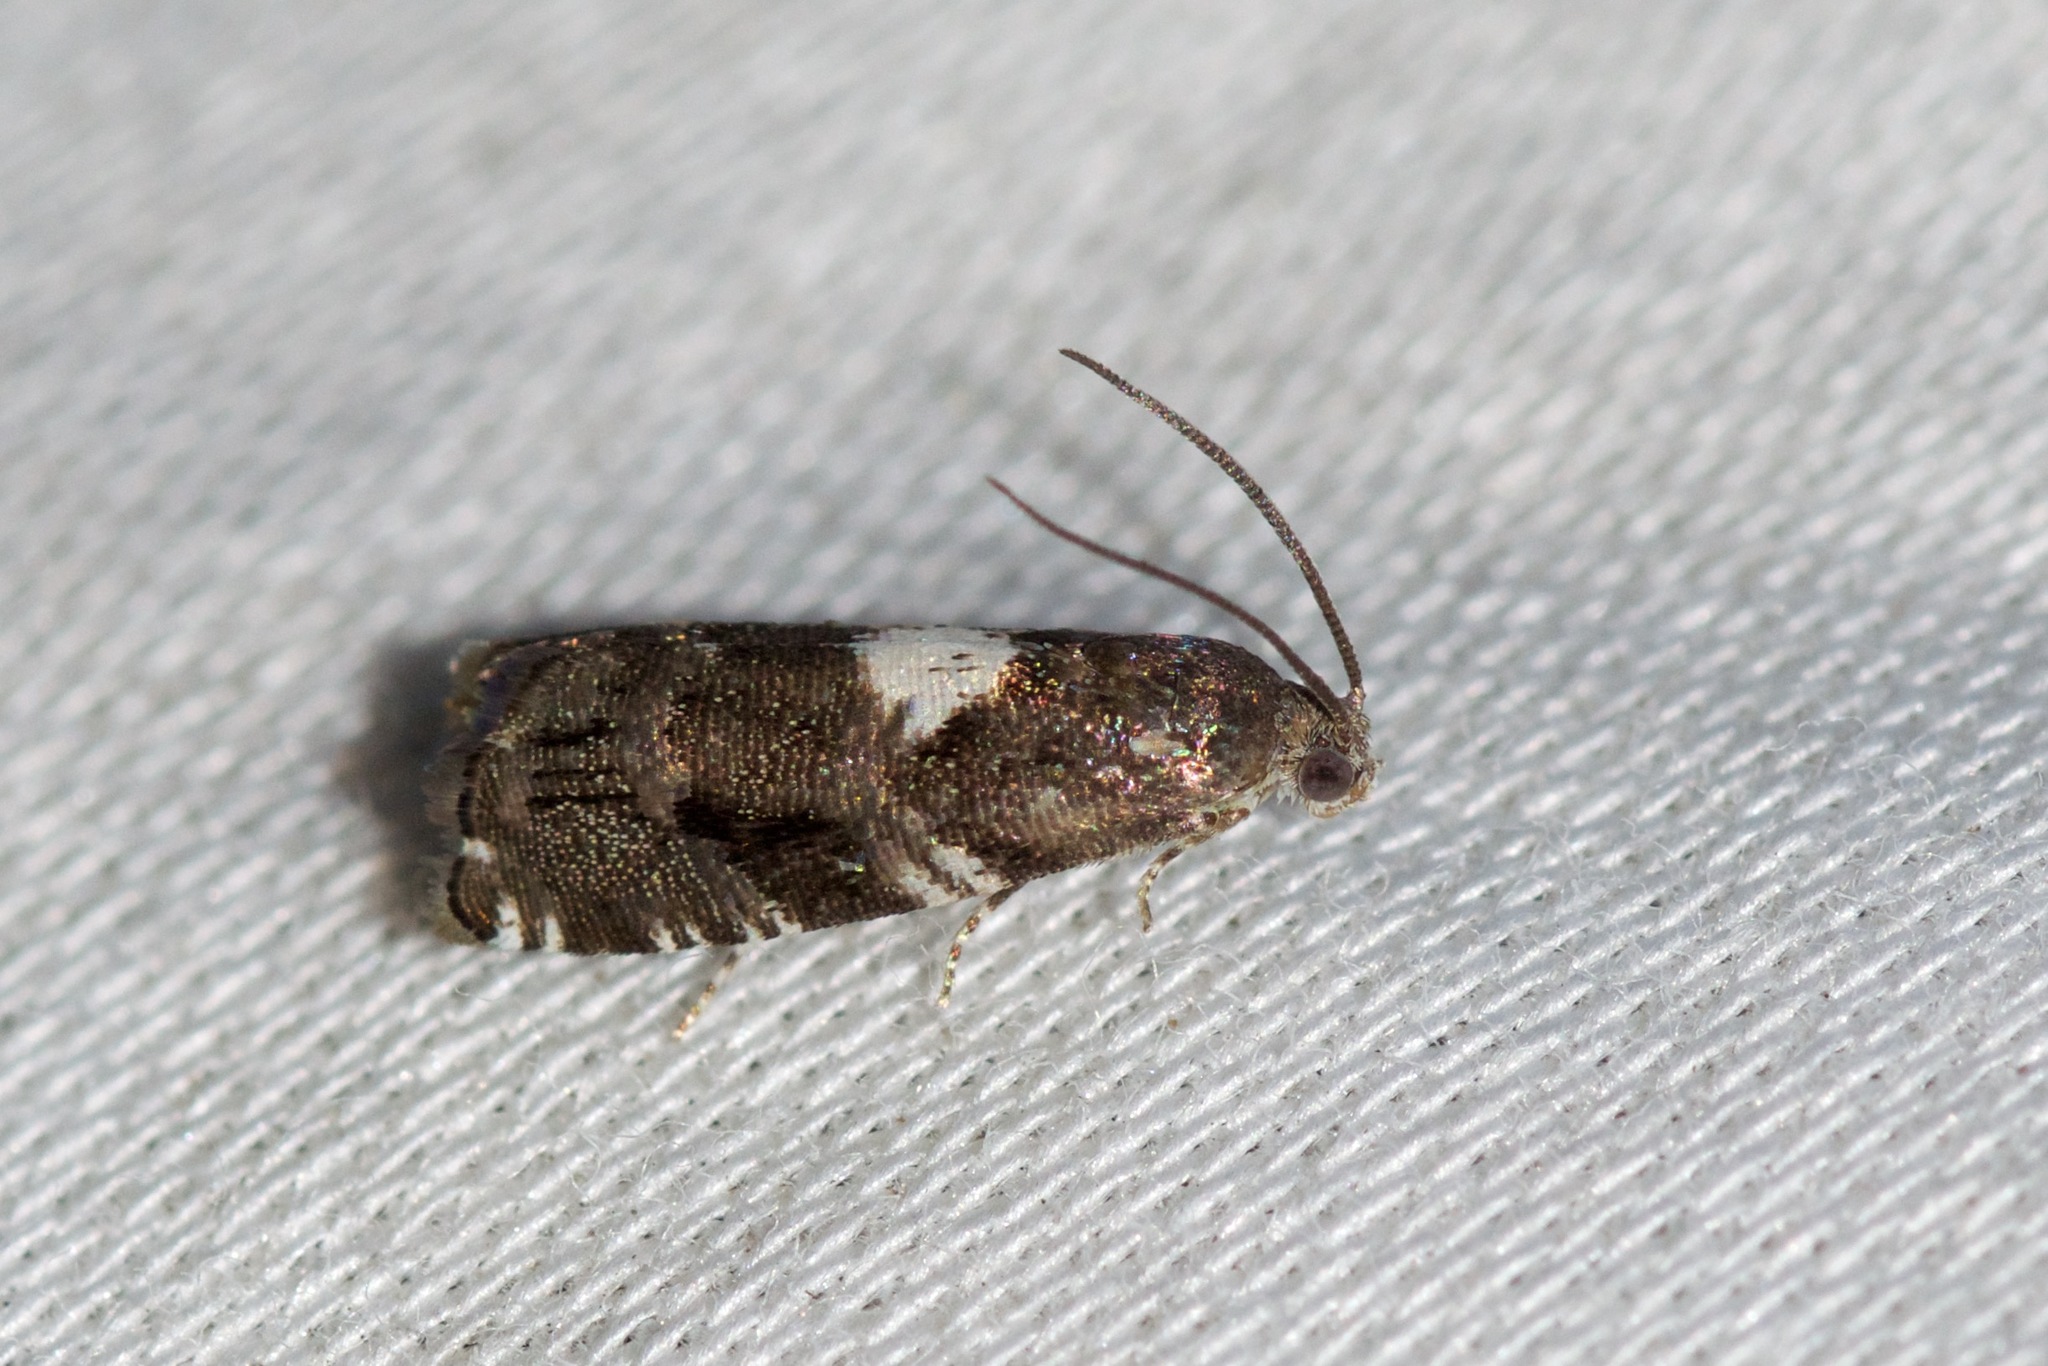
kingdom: Animalia
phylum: Arthropoda
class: Insecta
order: Lepidoptera
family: Tortricidae
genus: Cydia
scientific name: Cydia albimaculana
